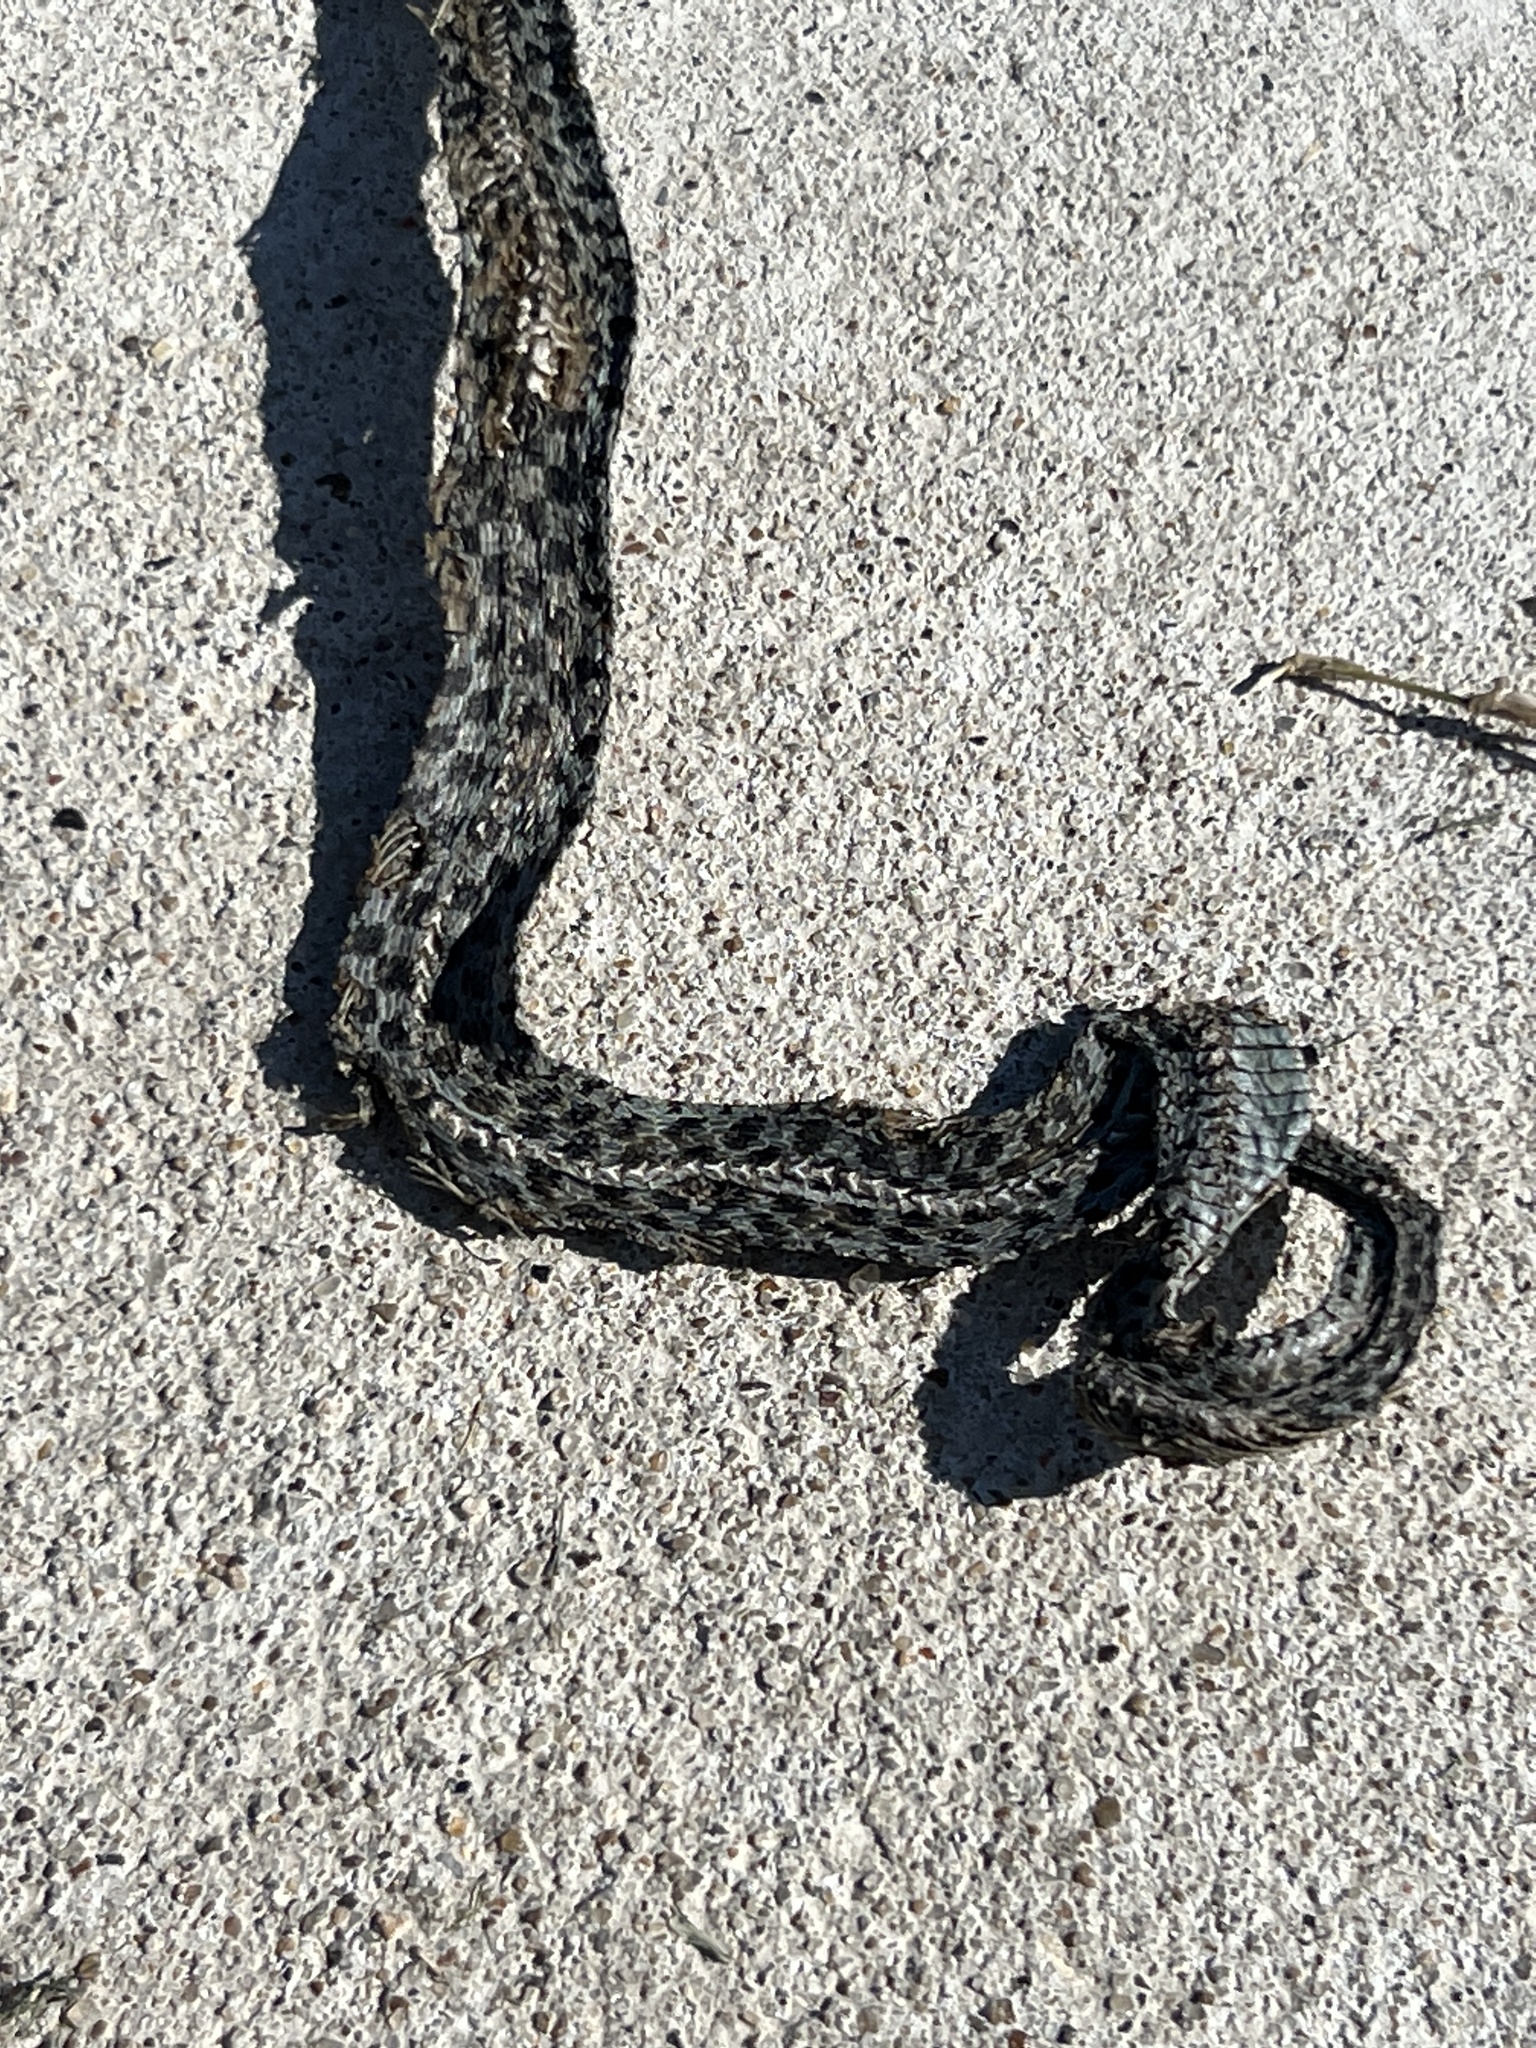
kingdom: Animalia
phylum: Chordata
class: Squamata
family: Colubridae
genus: Thamnophis
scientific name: Thamnophis marcianus
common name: Checkered garter snake
